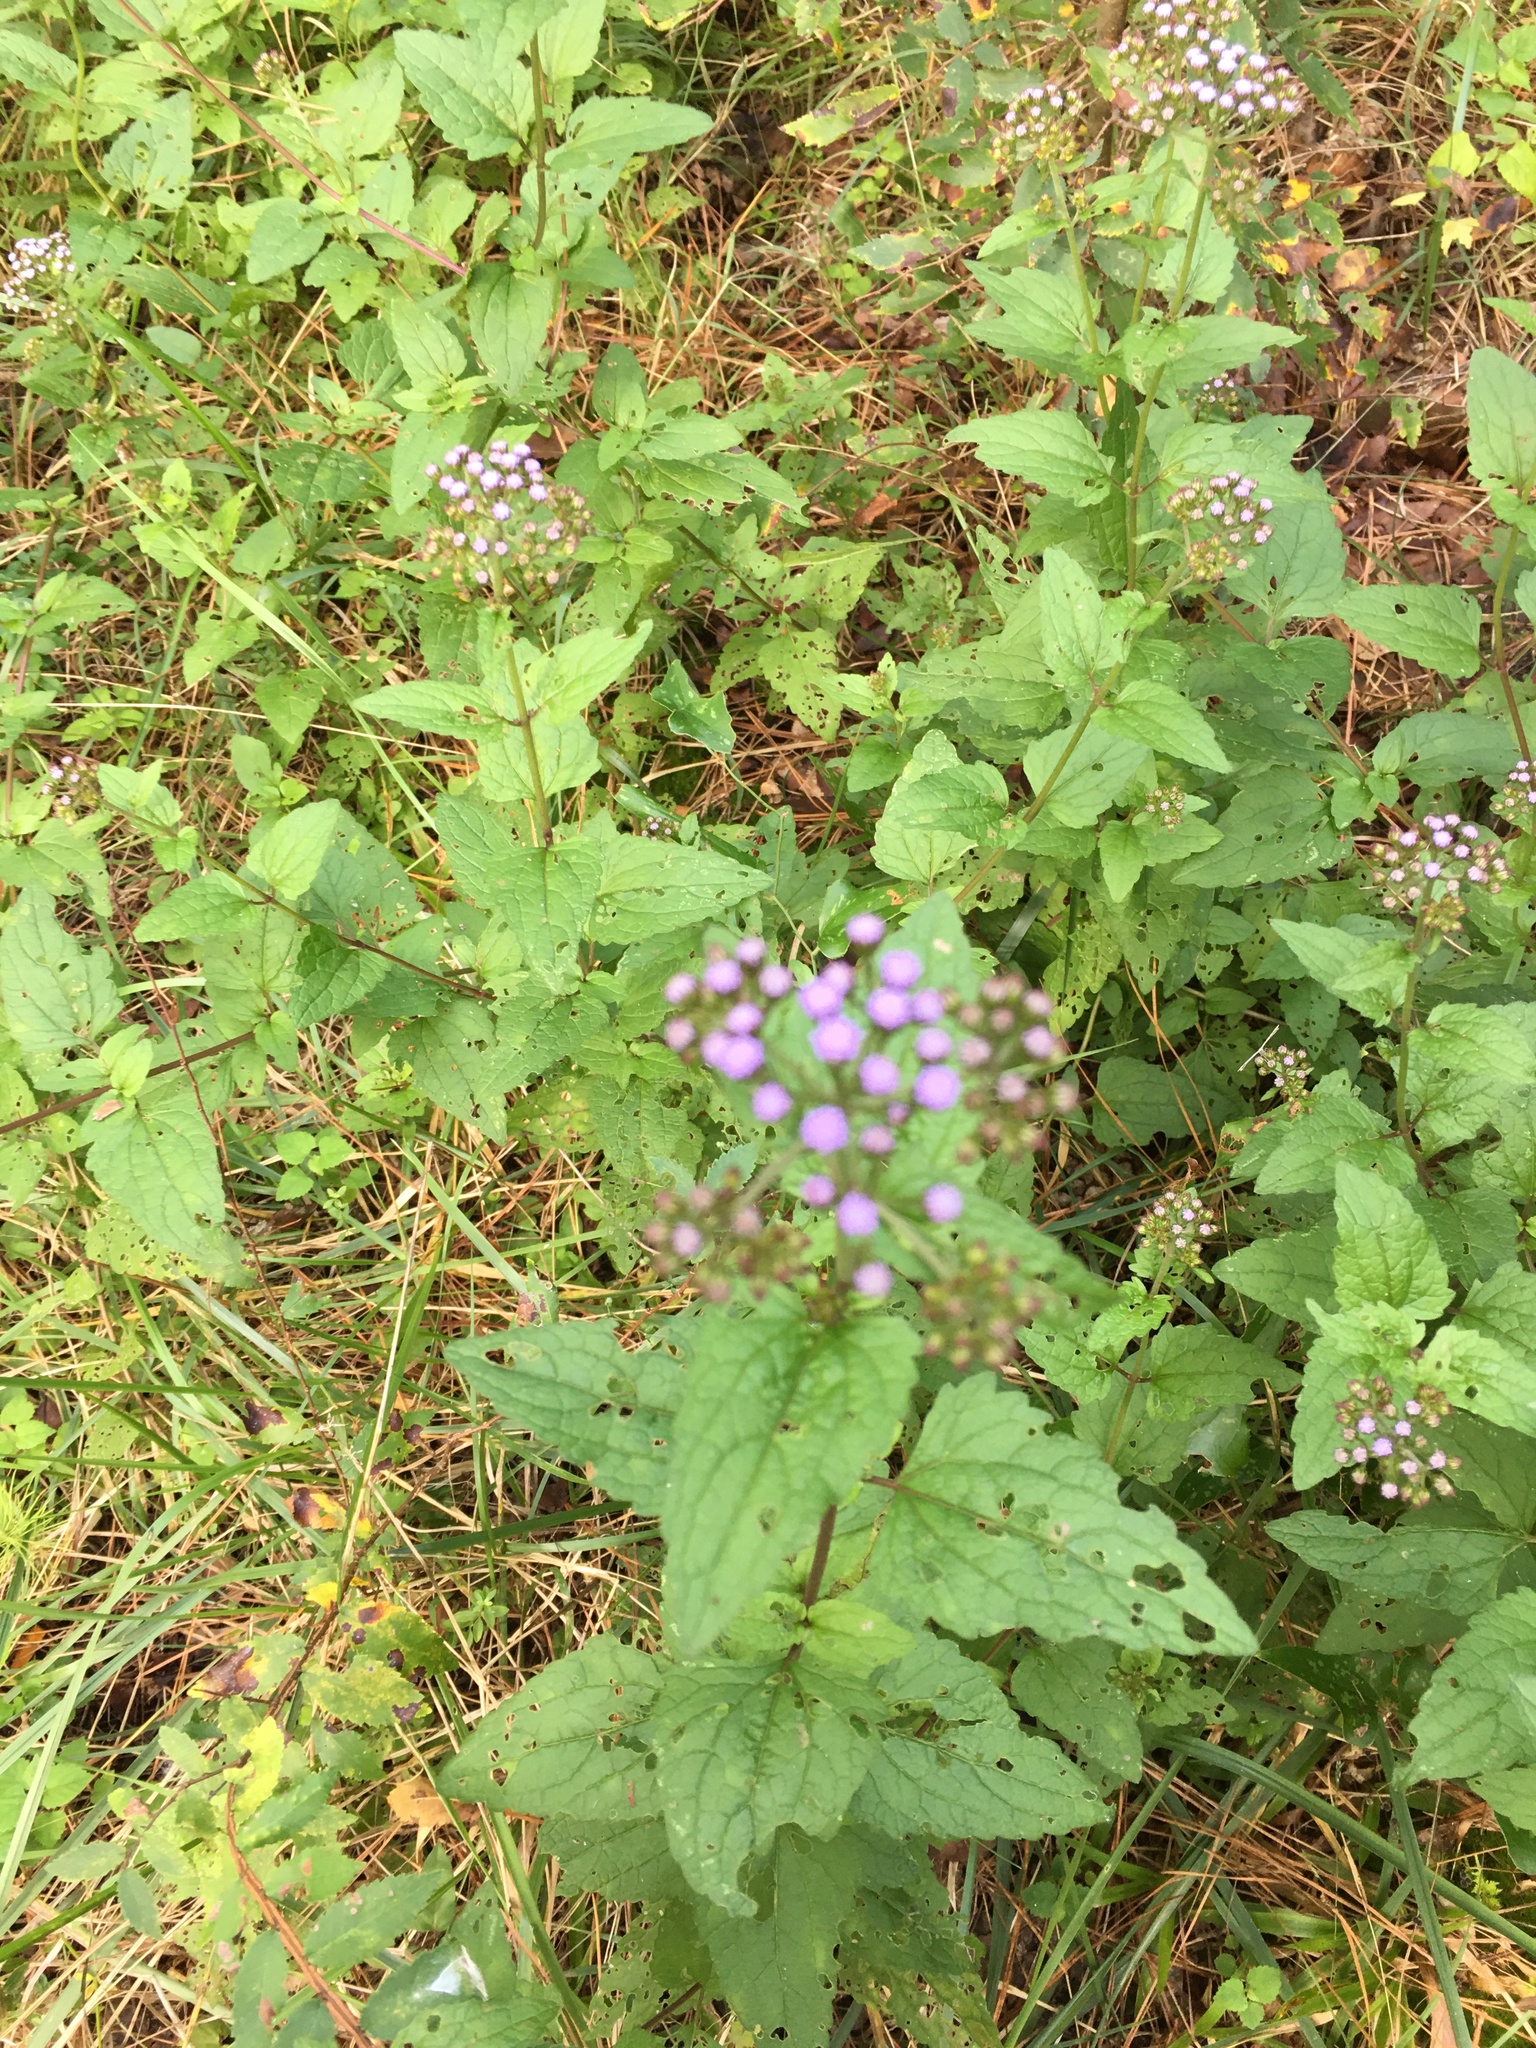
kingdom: Plantae
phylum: Tracheophyta
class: Magnoliopsida
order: Asterales
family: Asteraceae
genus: Conoclinium
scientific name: Conoclinium coelestinum
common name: Blue mistflower
